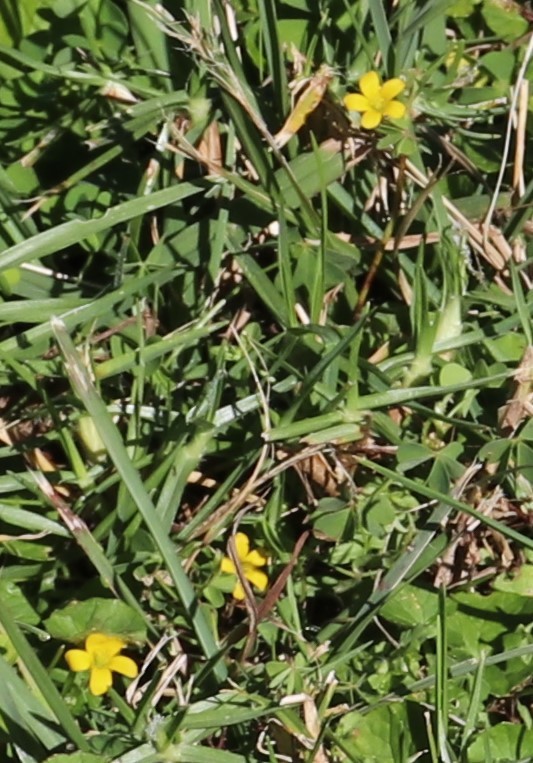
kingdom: Plantae
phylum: Tracheophyta
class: Magnoliopsida
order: Oxalidales
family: Oxalidaceae
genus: Oxalis
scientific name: Oxalis corniculata
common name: Procumbent yellow-sorrel
